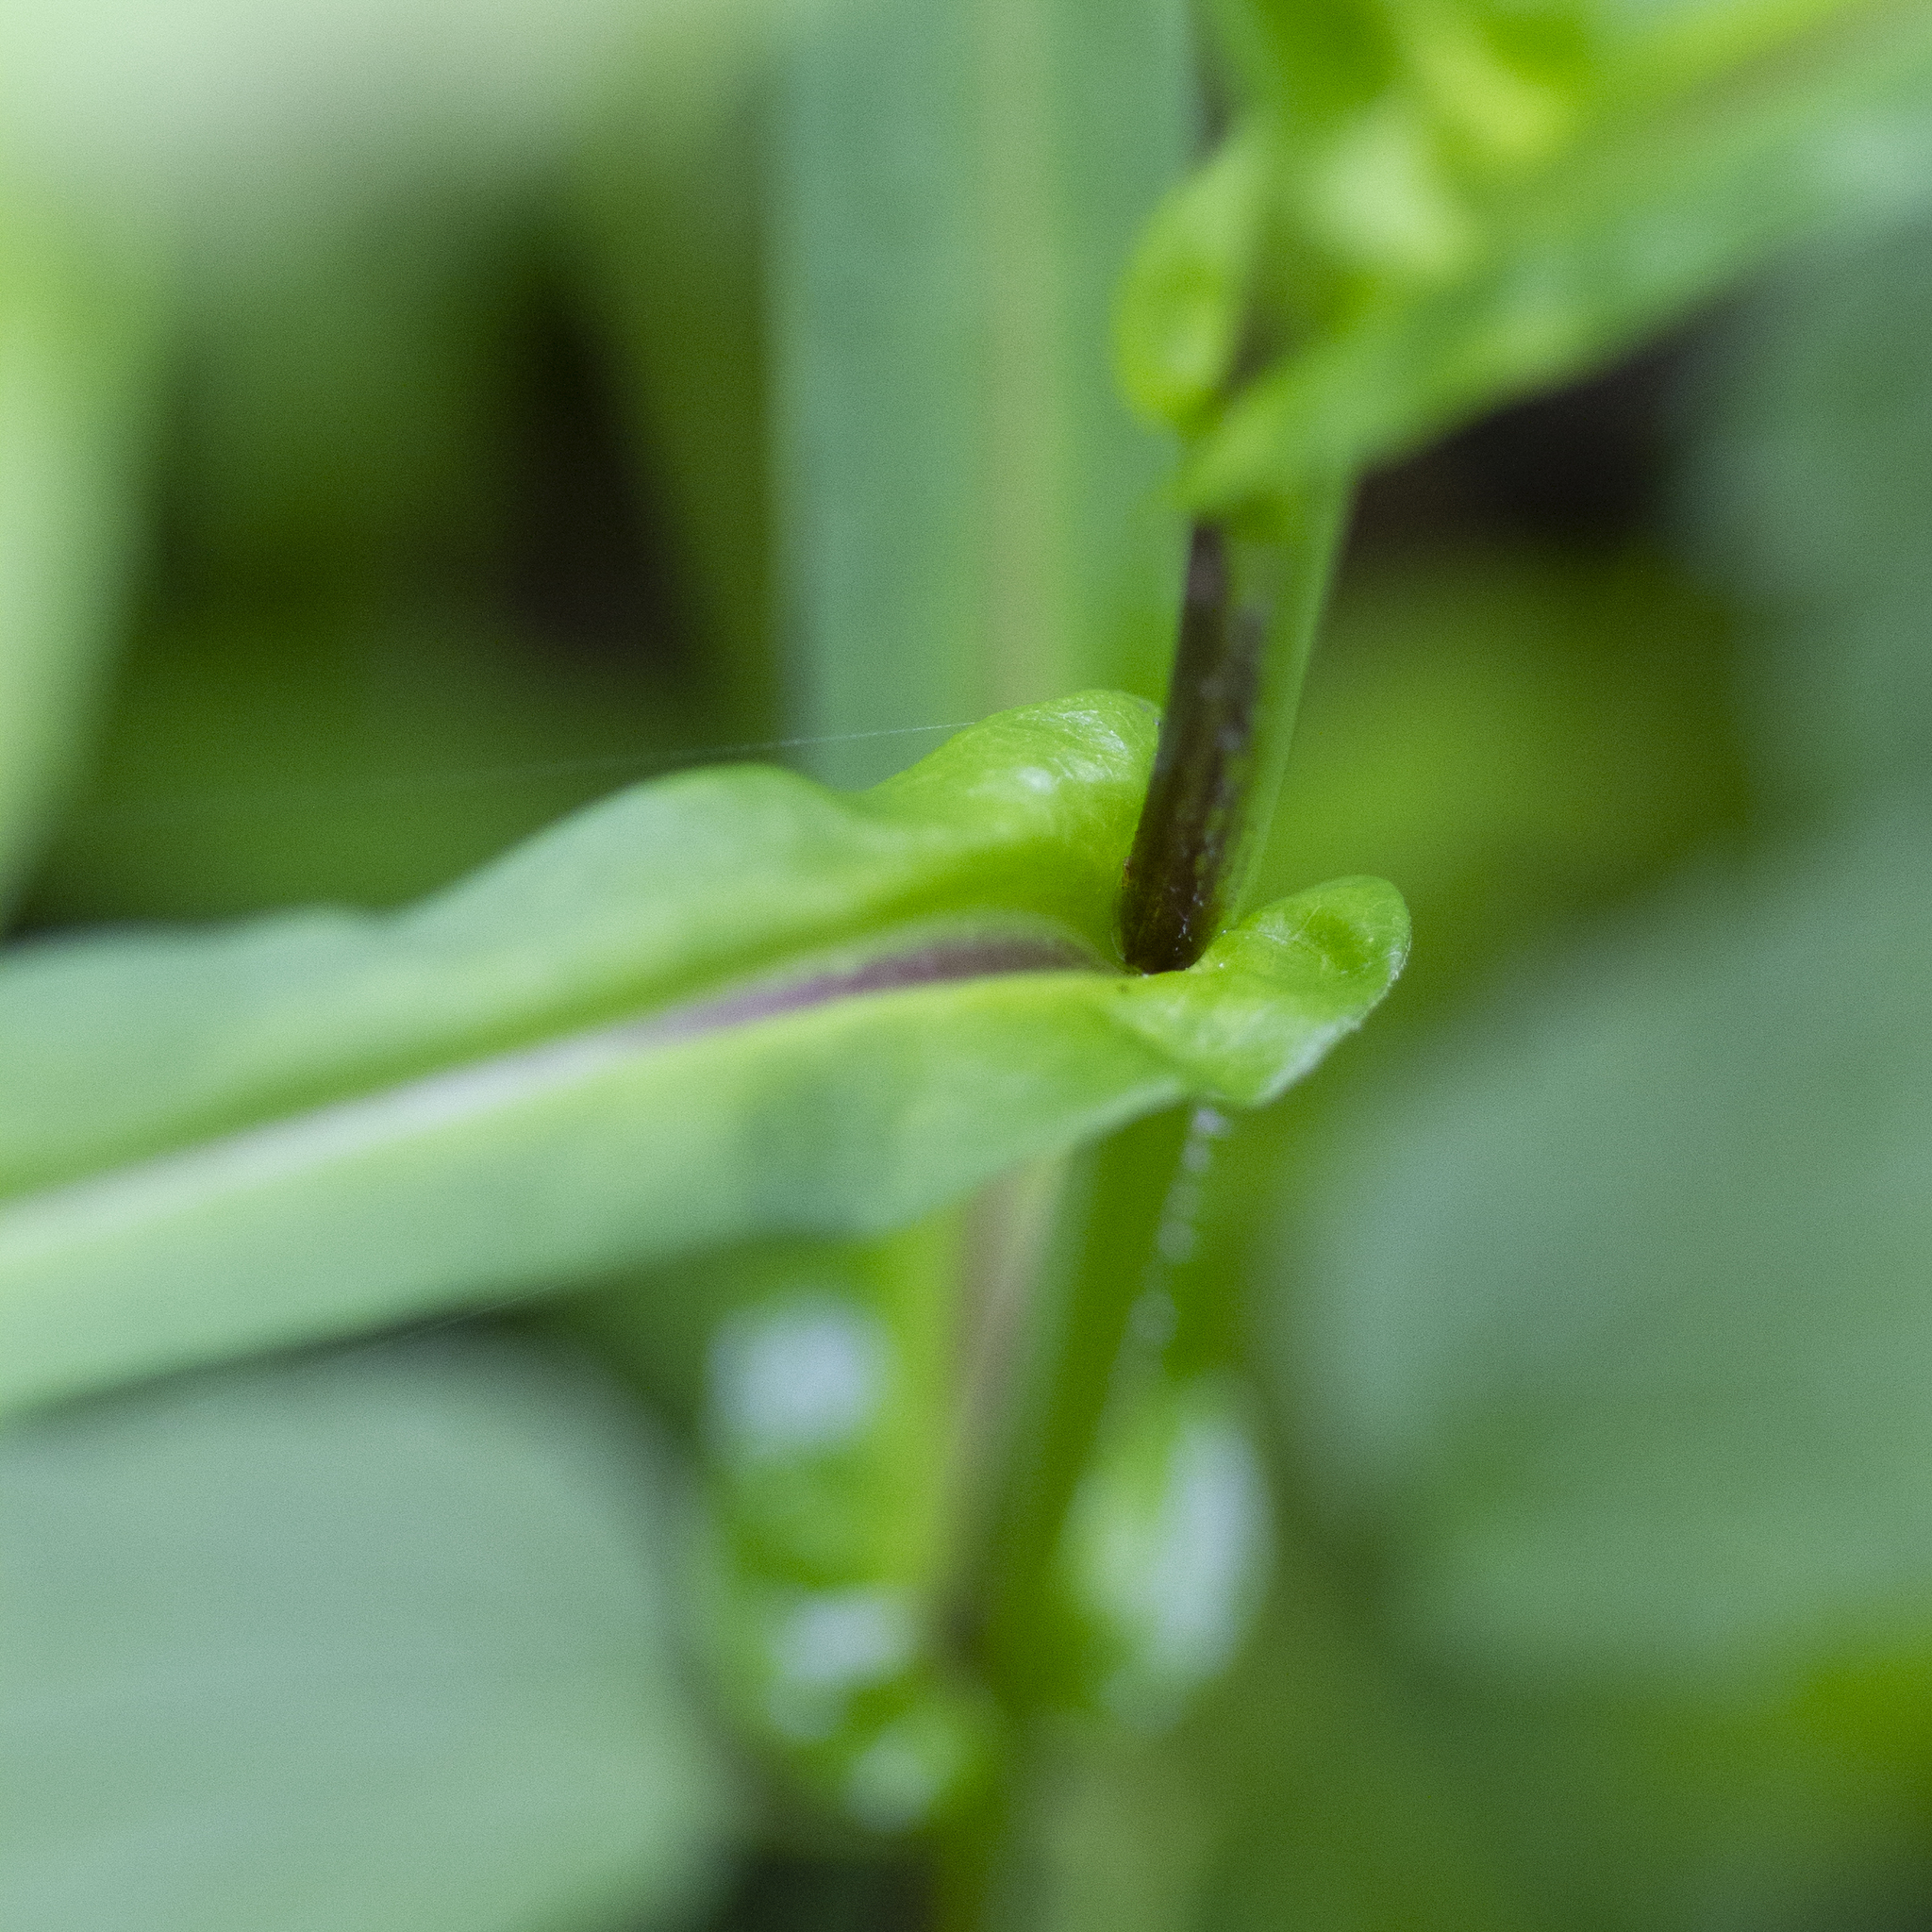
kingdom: Plantae
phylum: Tracheophyta
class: Magnoliopsida
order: Asterales
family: Asteraceae
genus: Symphyotrichum
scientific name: Symphyotrichum prenanthoides
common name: Crooked-stem aster
